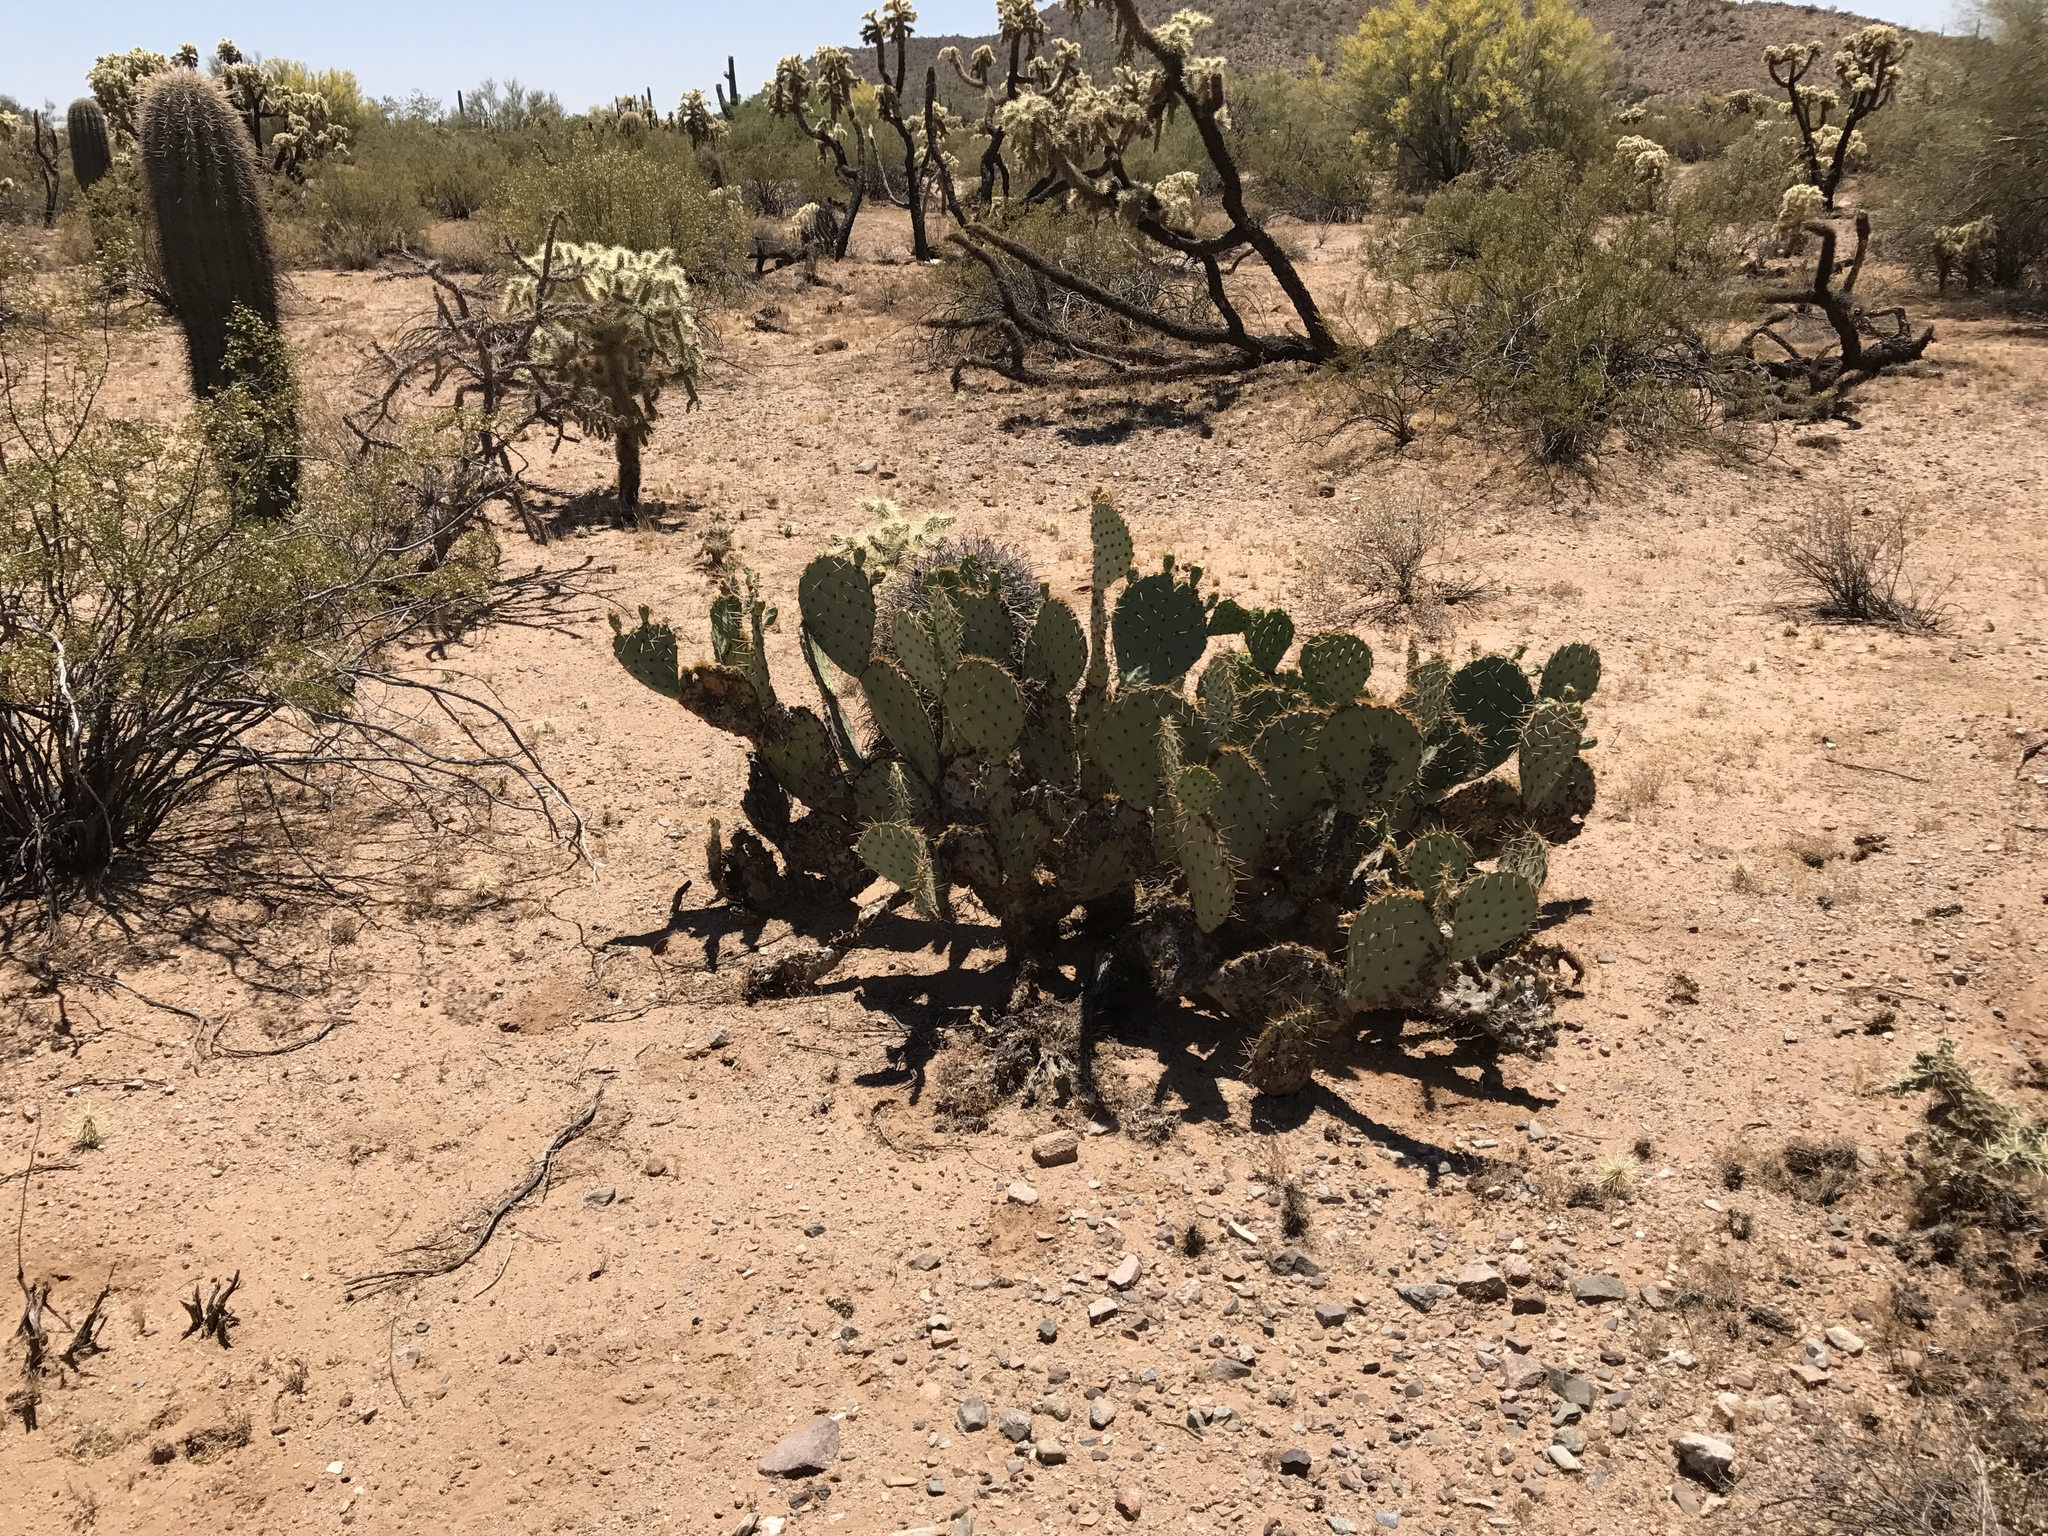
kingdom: Plantae
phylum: Tracheophyta
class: Magnoliopsida
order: Caryophyllales
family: Cactaceae
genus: Opuntia
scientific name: Opuntia engelmannii
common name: Cactus-apple
